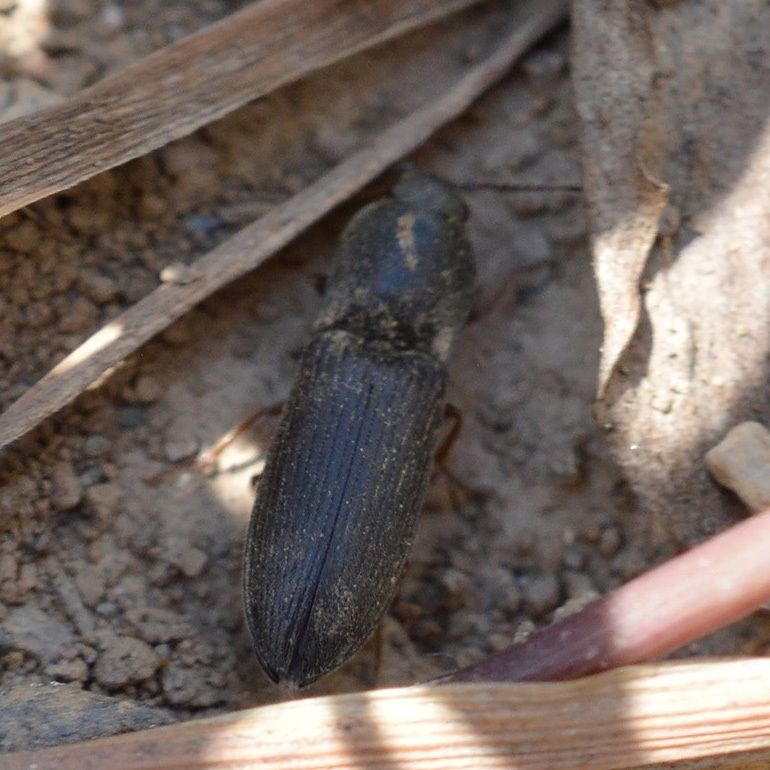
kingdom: Animalia
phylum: Arthropoda
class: Insecta
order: Coleoptera
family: Elateridae
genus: Agriotes
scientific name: Agriotes ustulatus
